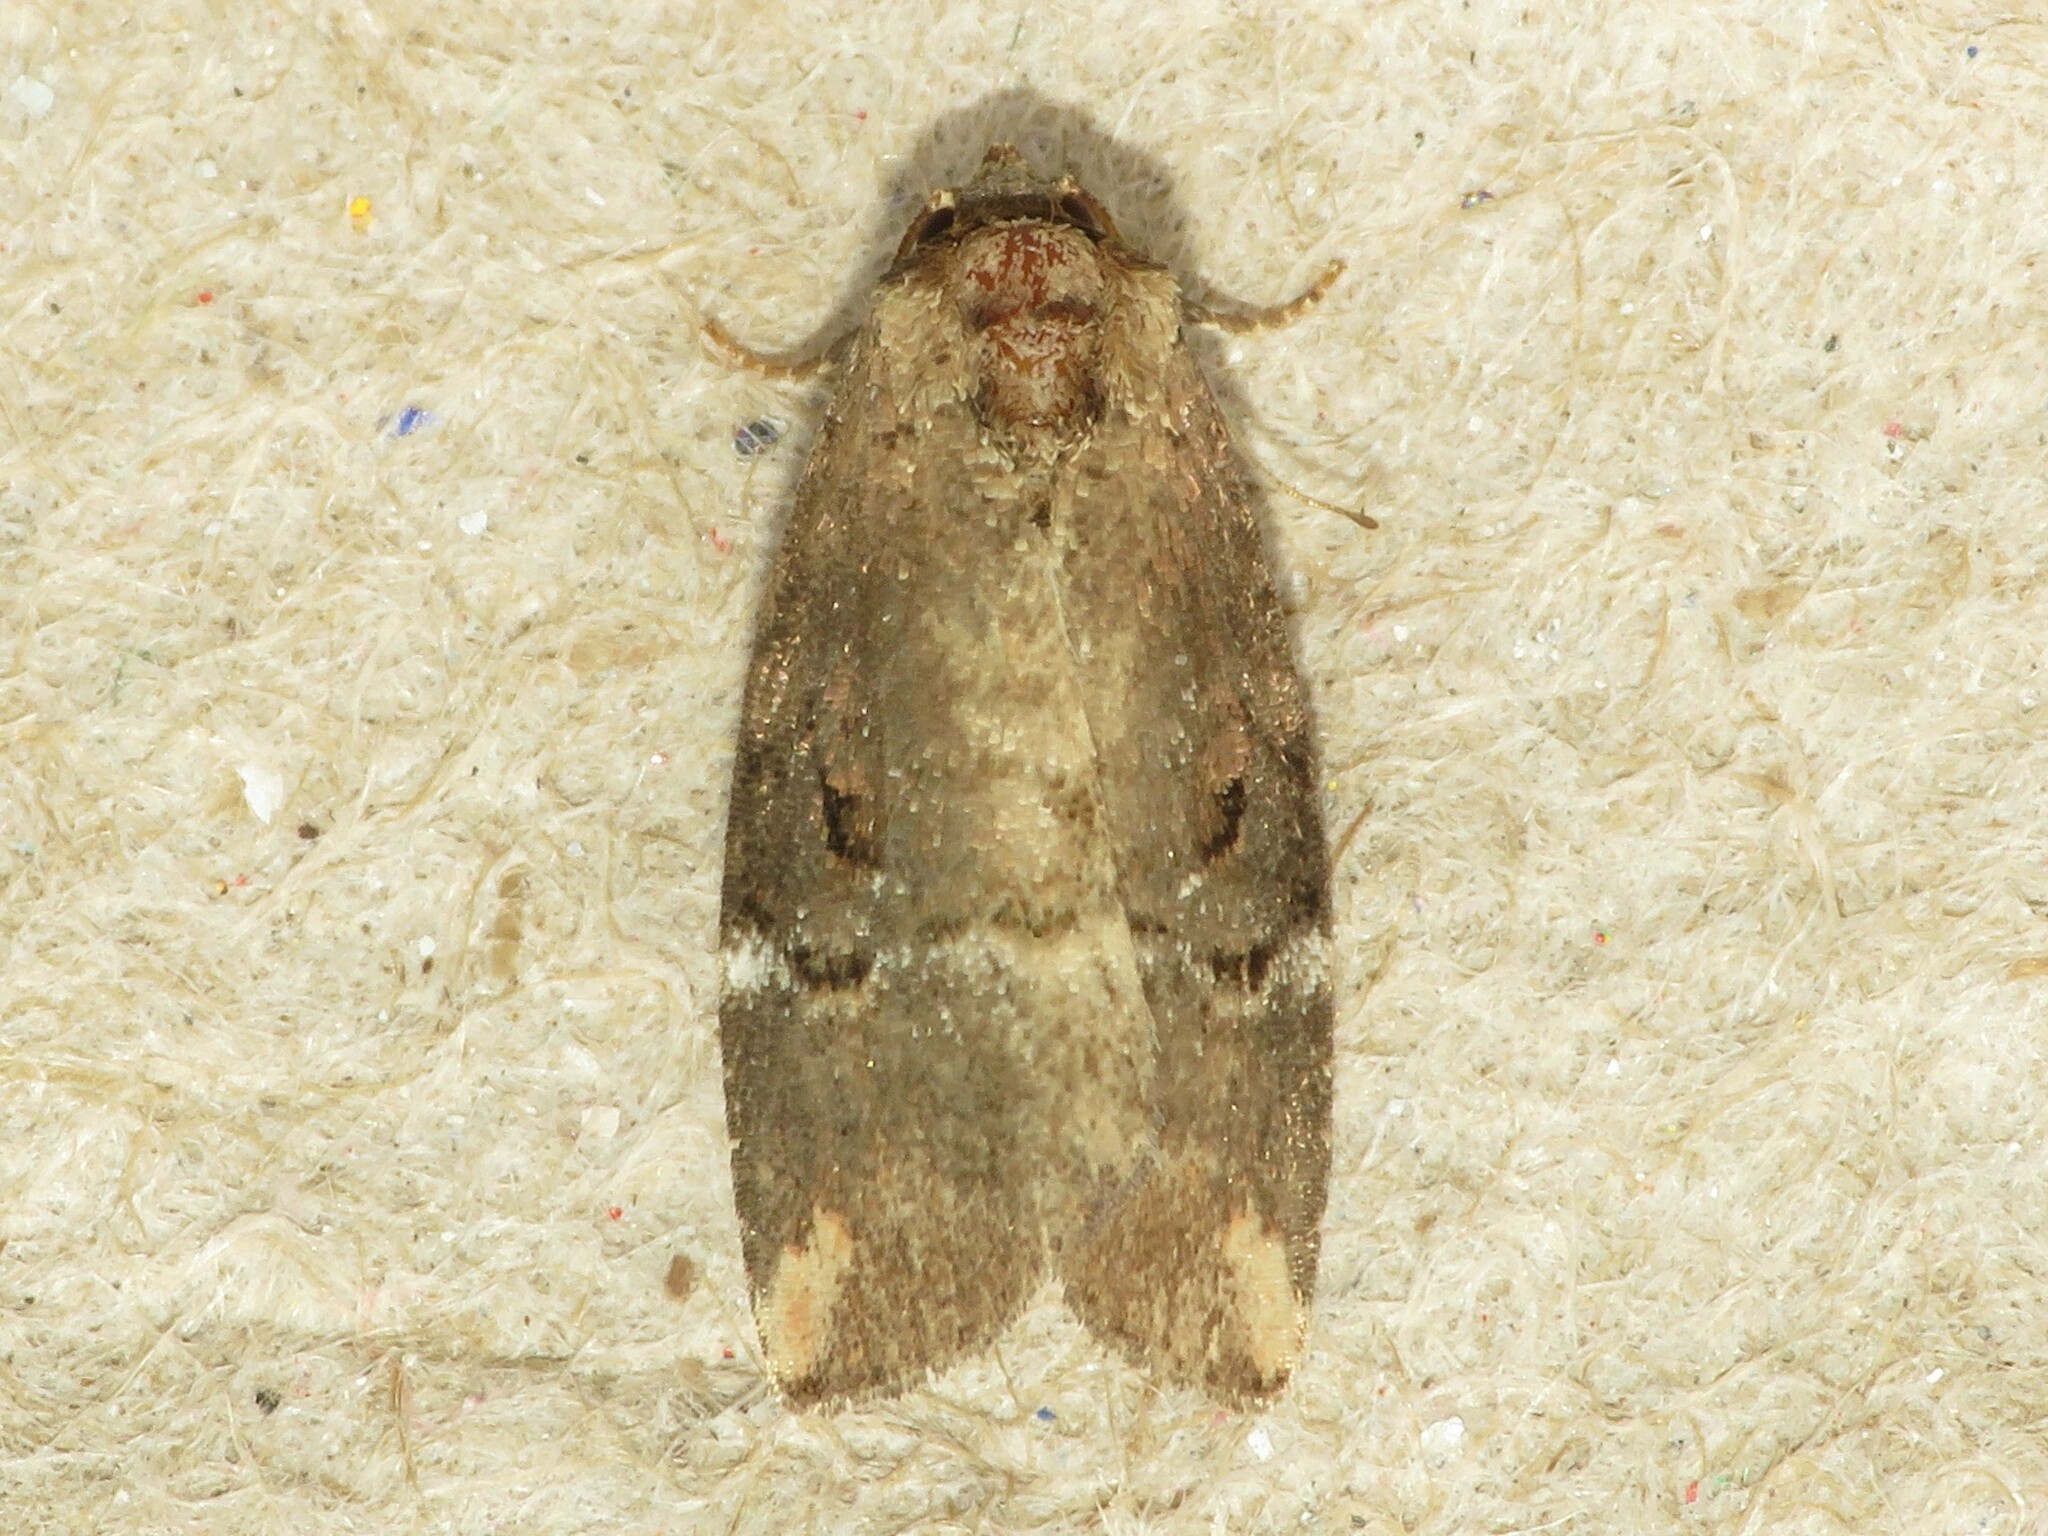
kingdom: Animalia
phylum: Arthropoda
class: Insecta
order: Lepidoptera
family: Noctuidae
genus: Elaphria
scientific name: Elaphria versicolor
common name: Fir harlequin
